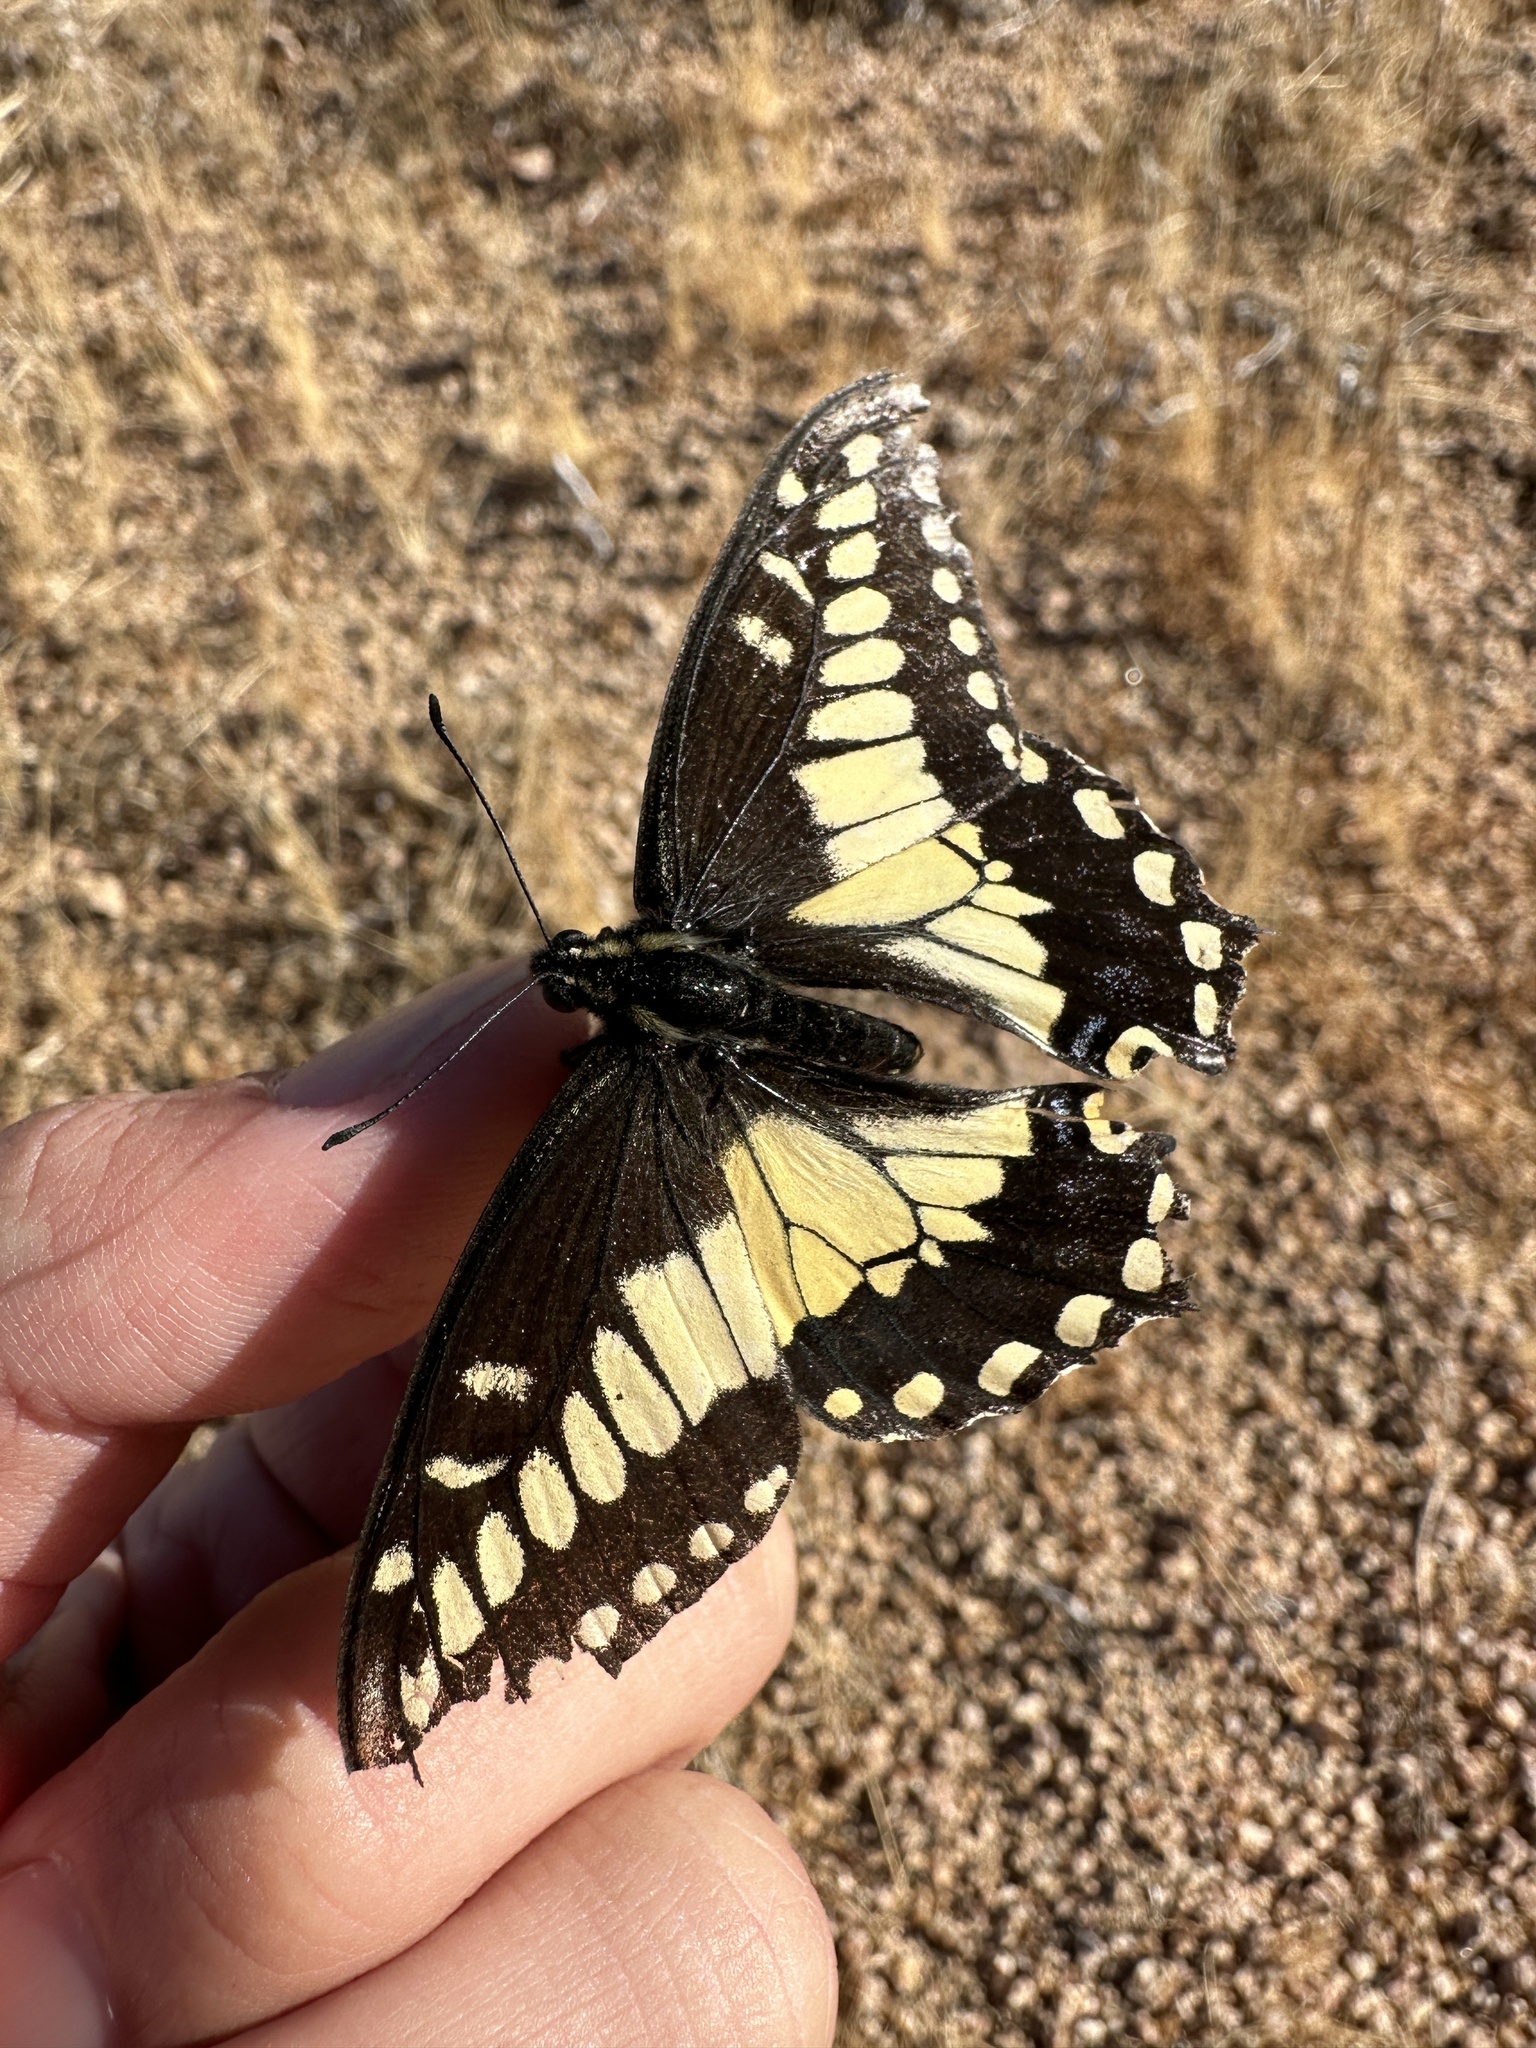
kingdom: Animalia
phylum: Arthropoda
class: Insecta
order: Lepidoptera
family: Papilionidae
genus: Papilio
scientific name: Papilio polyxenes
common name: Black swallowtail
